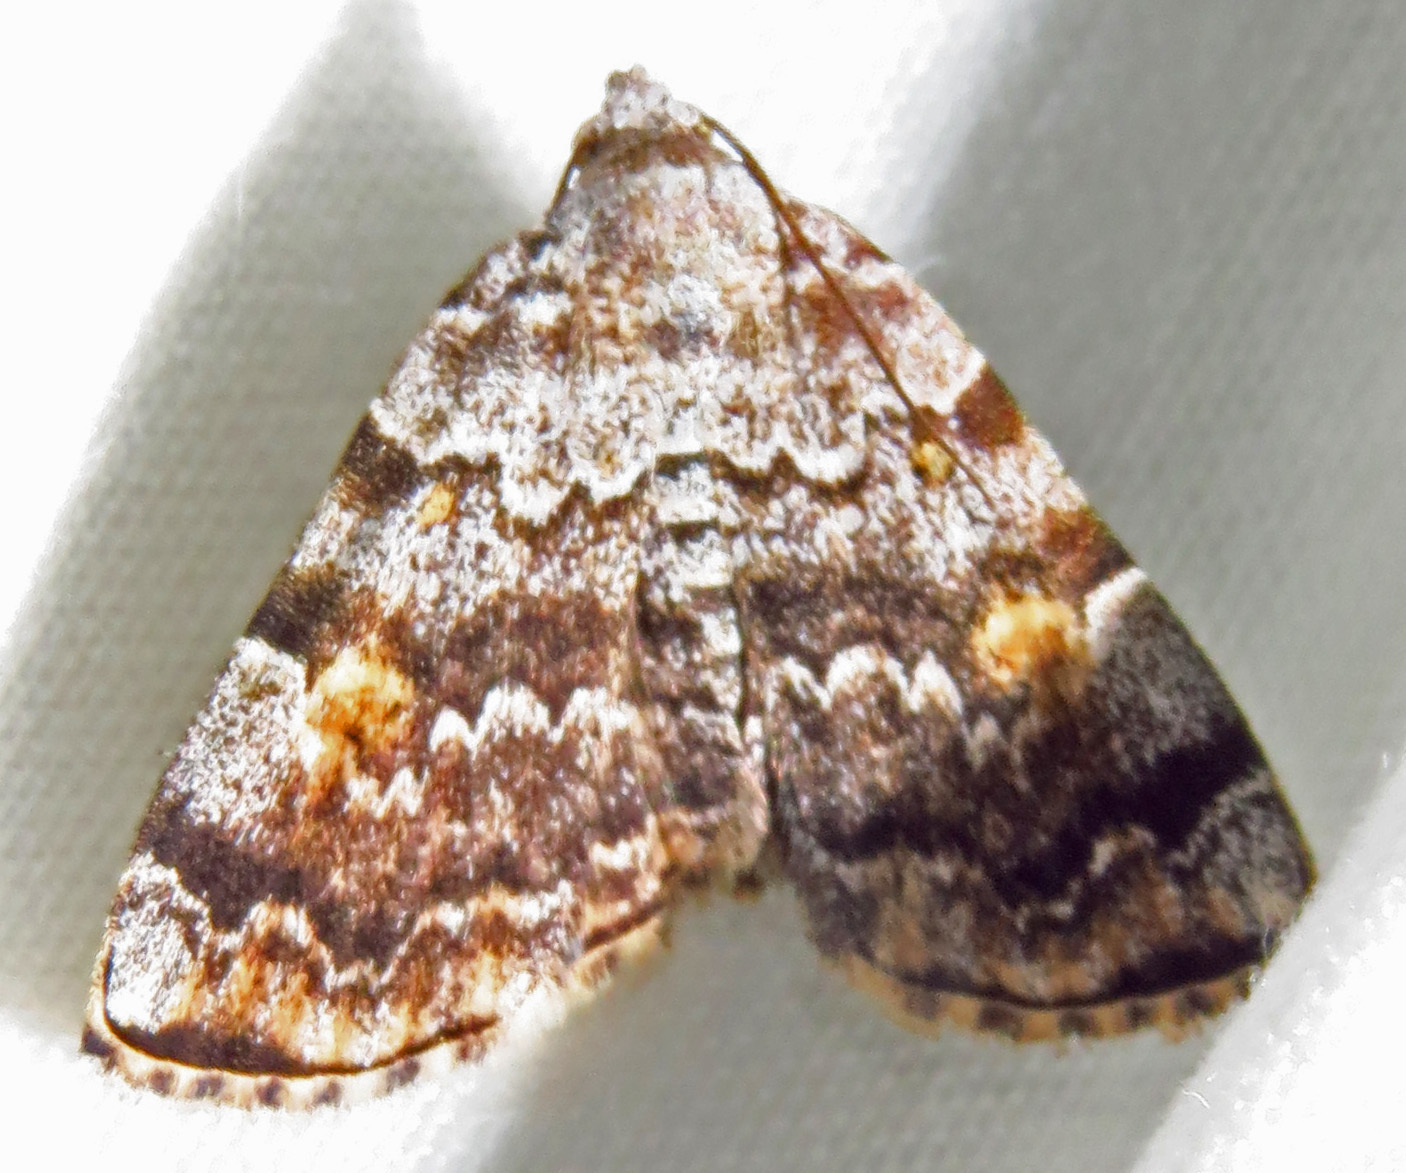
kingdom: Animalia
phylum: Arthropoda
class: Insecta
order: Lepidoptera
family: Erebidae
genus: Idia
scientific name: Idia americalis
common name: American idia moth
